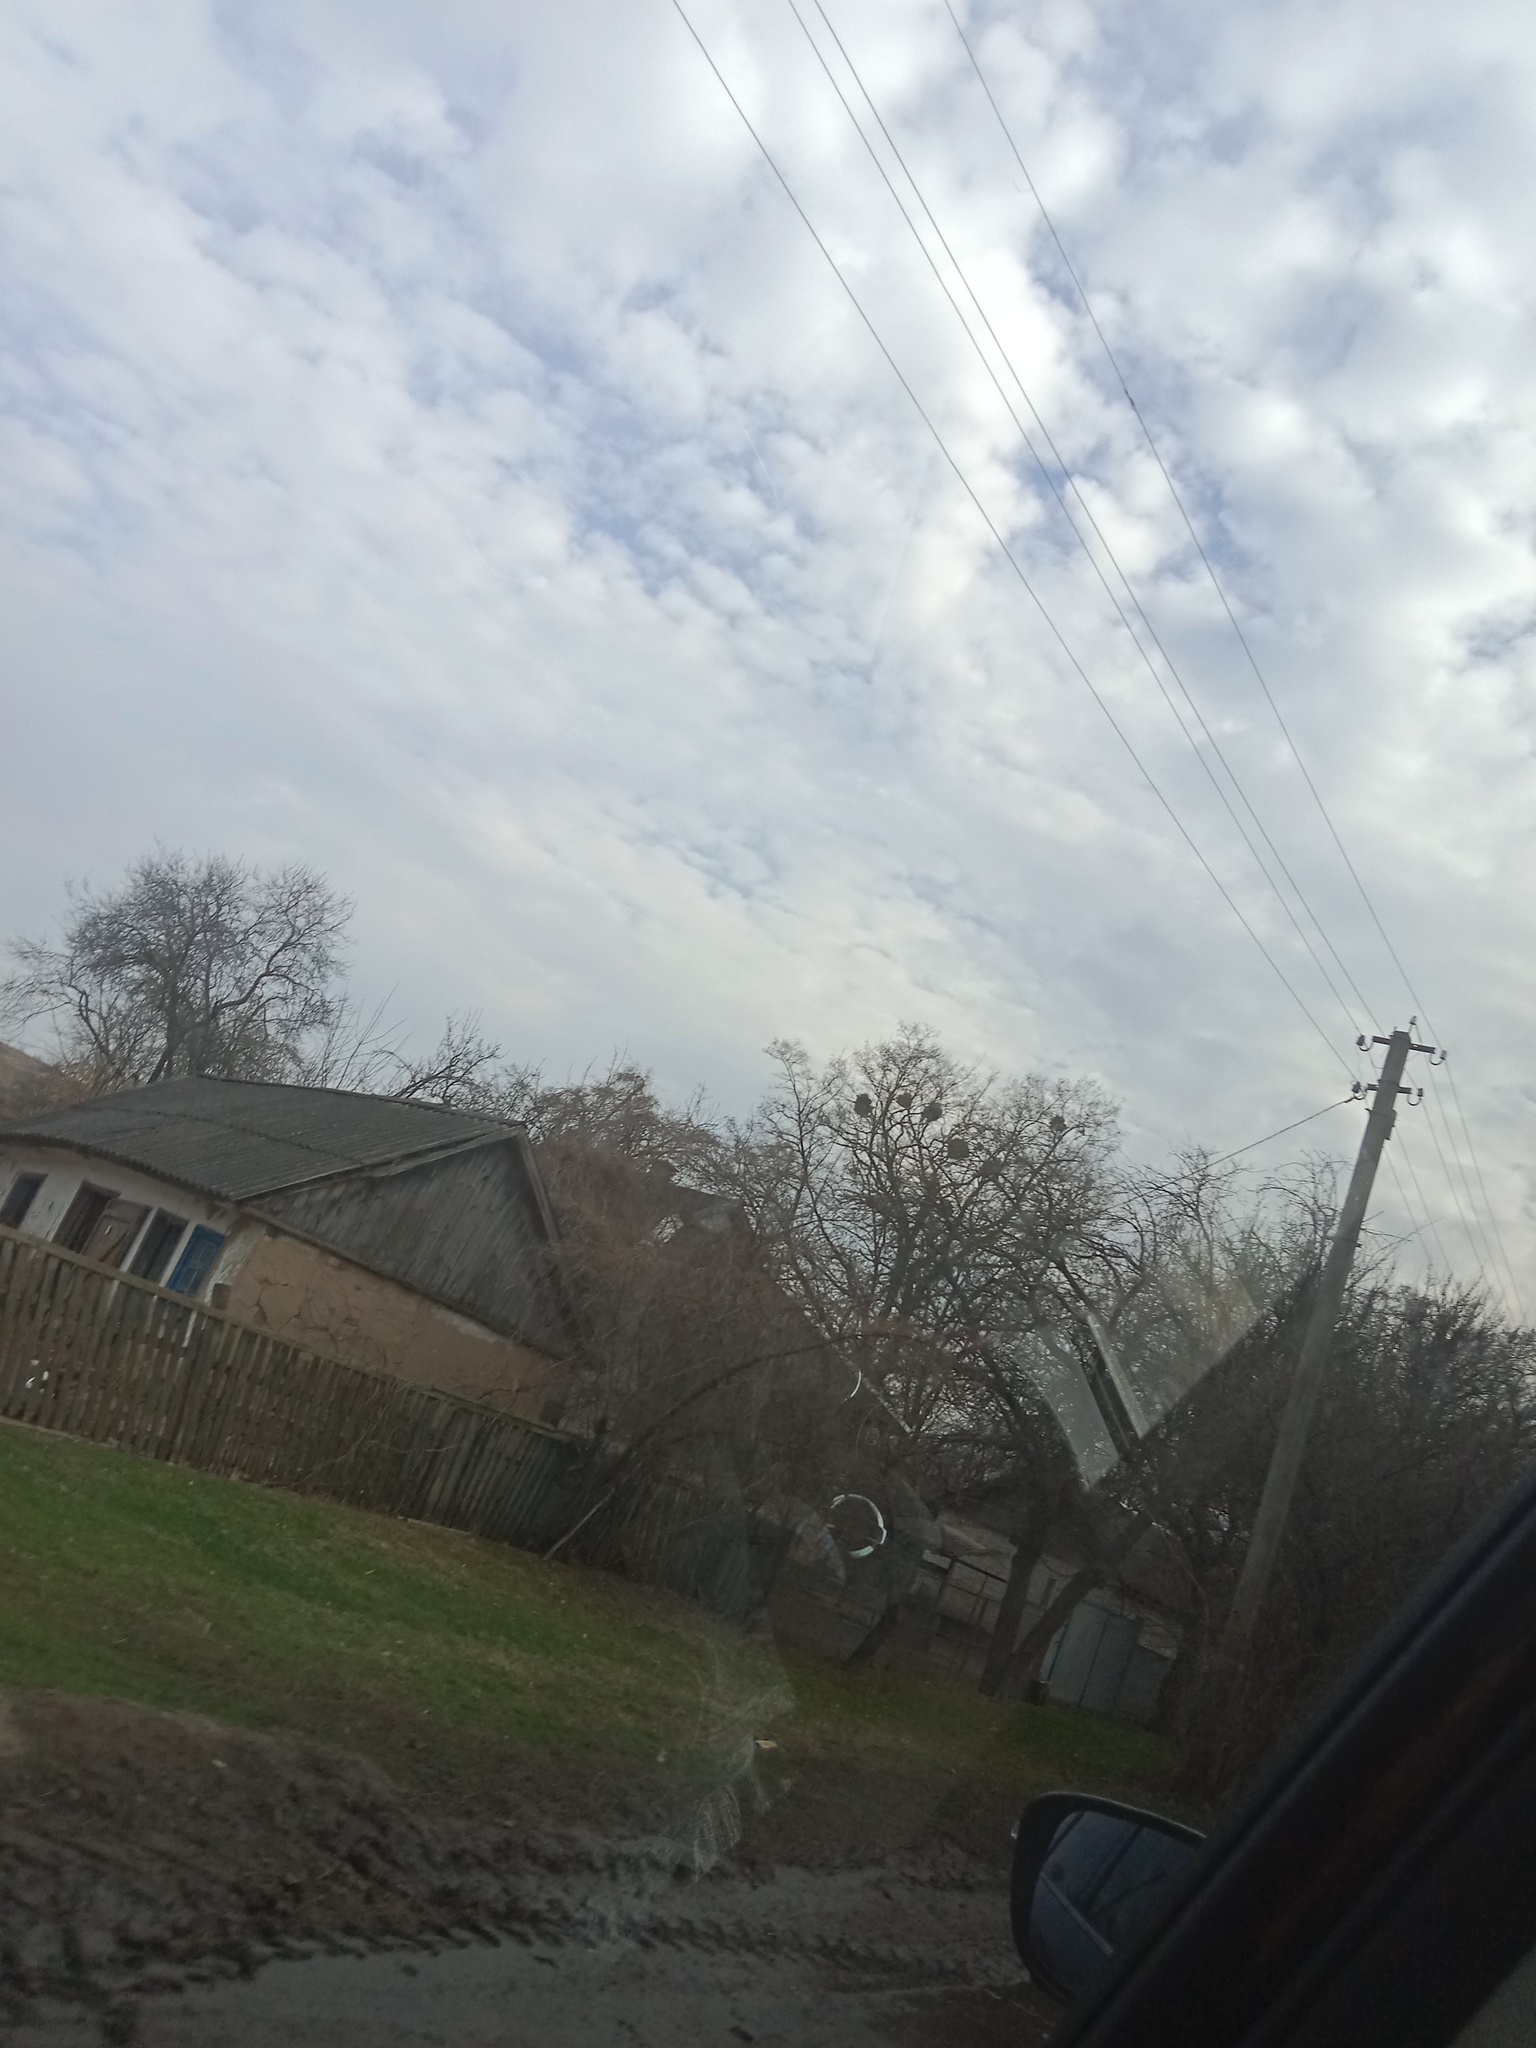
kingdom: Plantae
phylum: Tracheophyta
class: Magnoliopsida
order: Santalales
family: Viscaceae
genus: Viscum
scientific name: Viscum album
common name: Mistletoe
